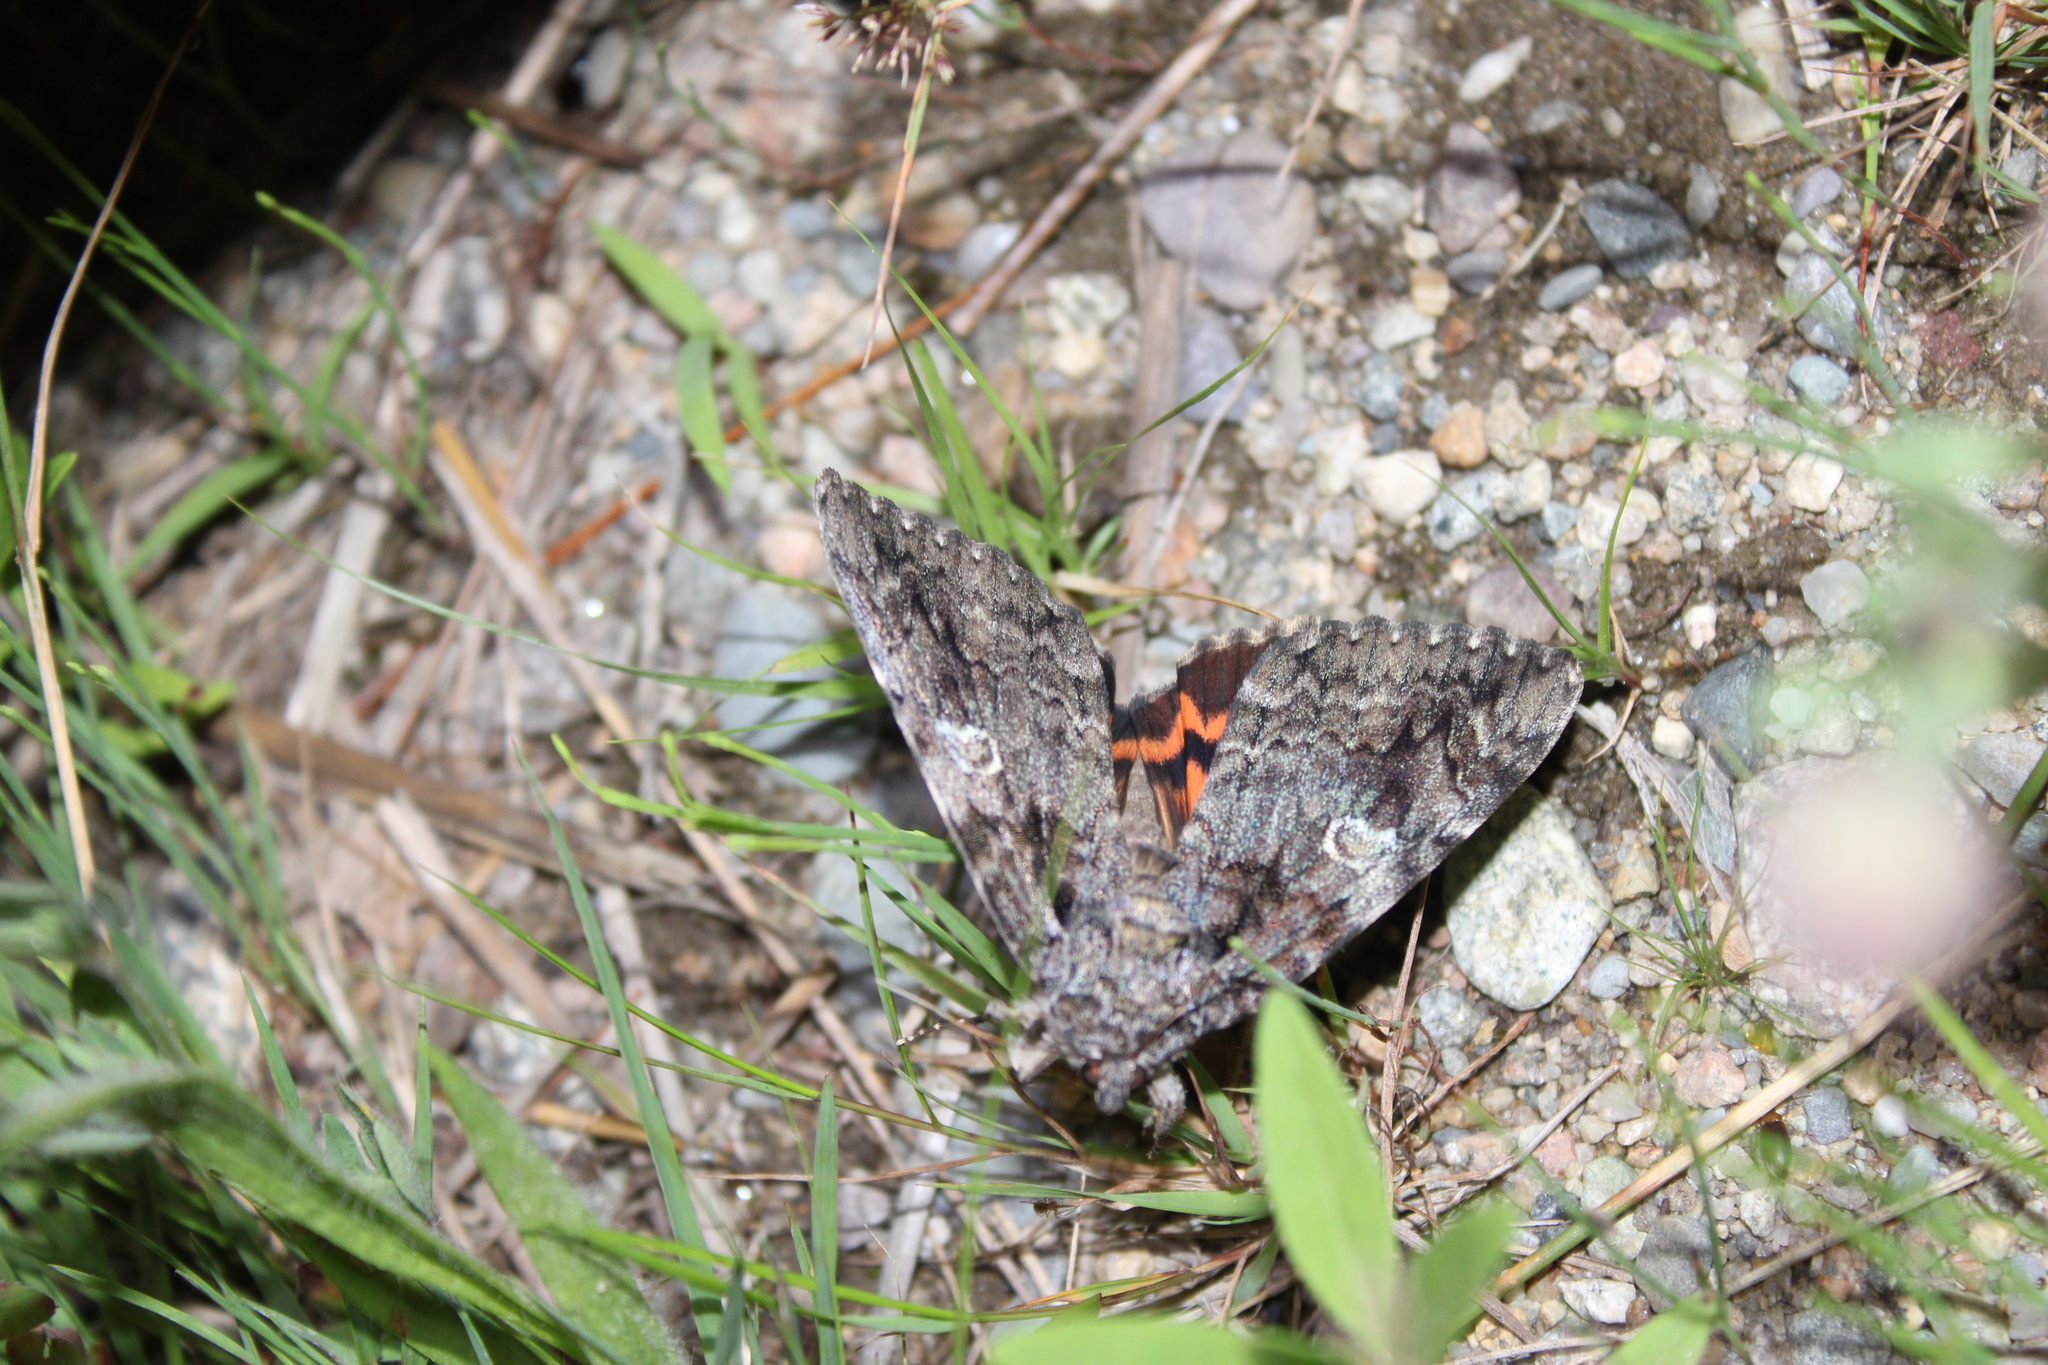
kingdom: Animalia
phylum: Arthropoda
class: Insecta
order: Lepidoptera
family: Erebidae
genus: Catocala
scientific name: Catocala ilia
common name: Ilia underwing
